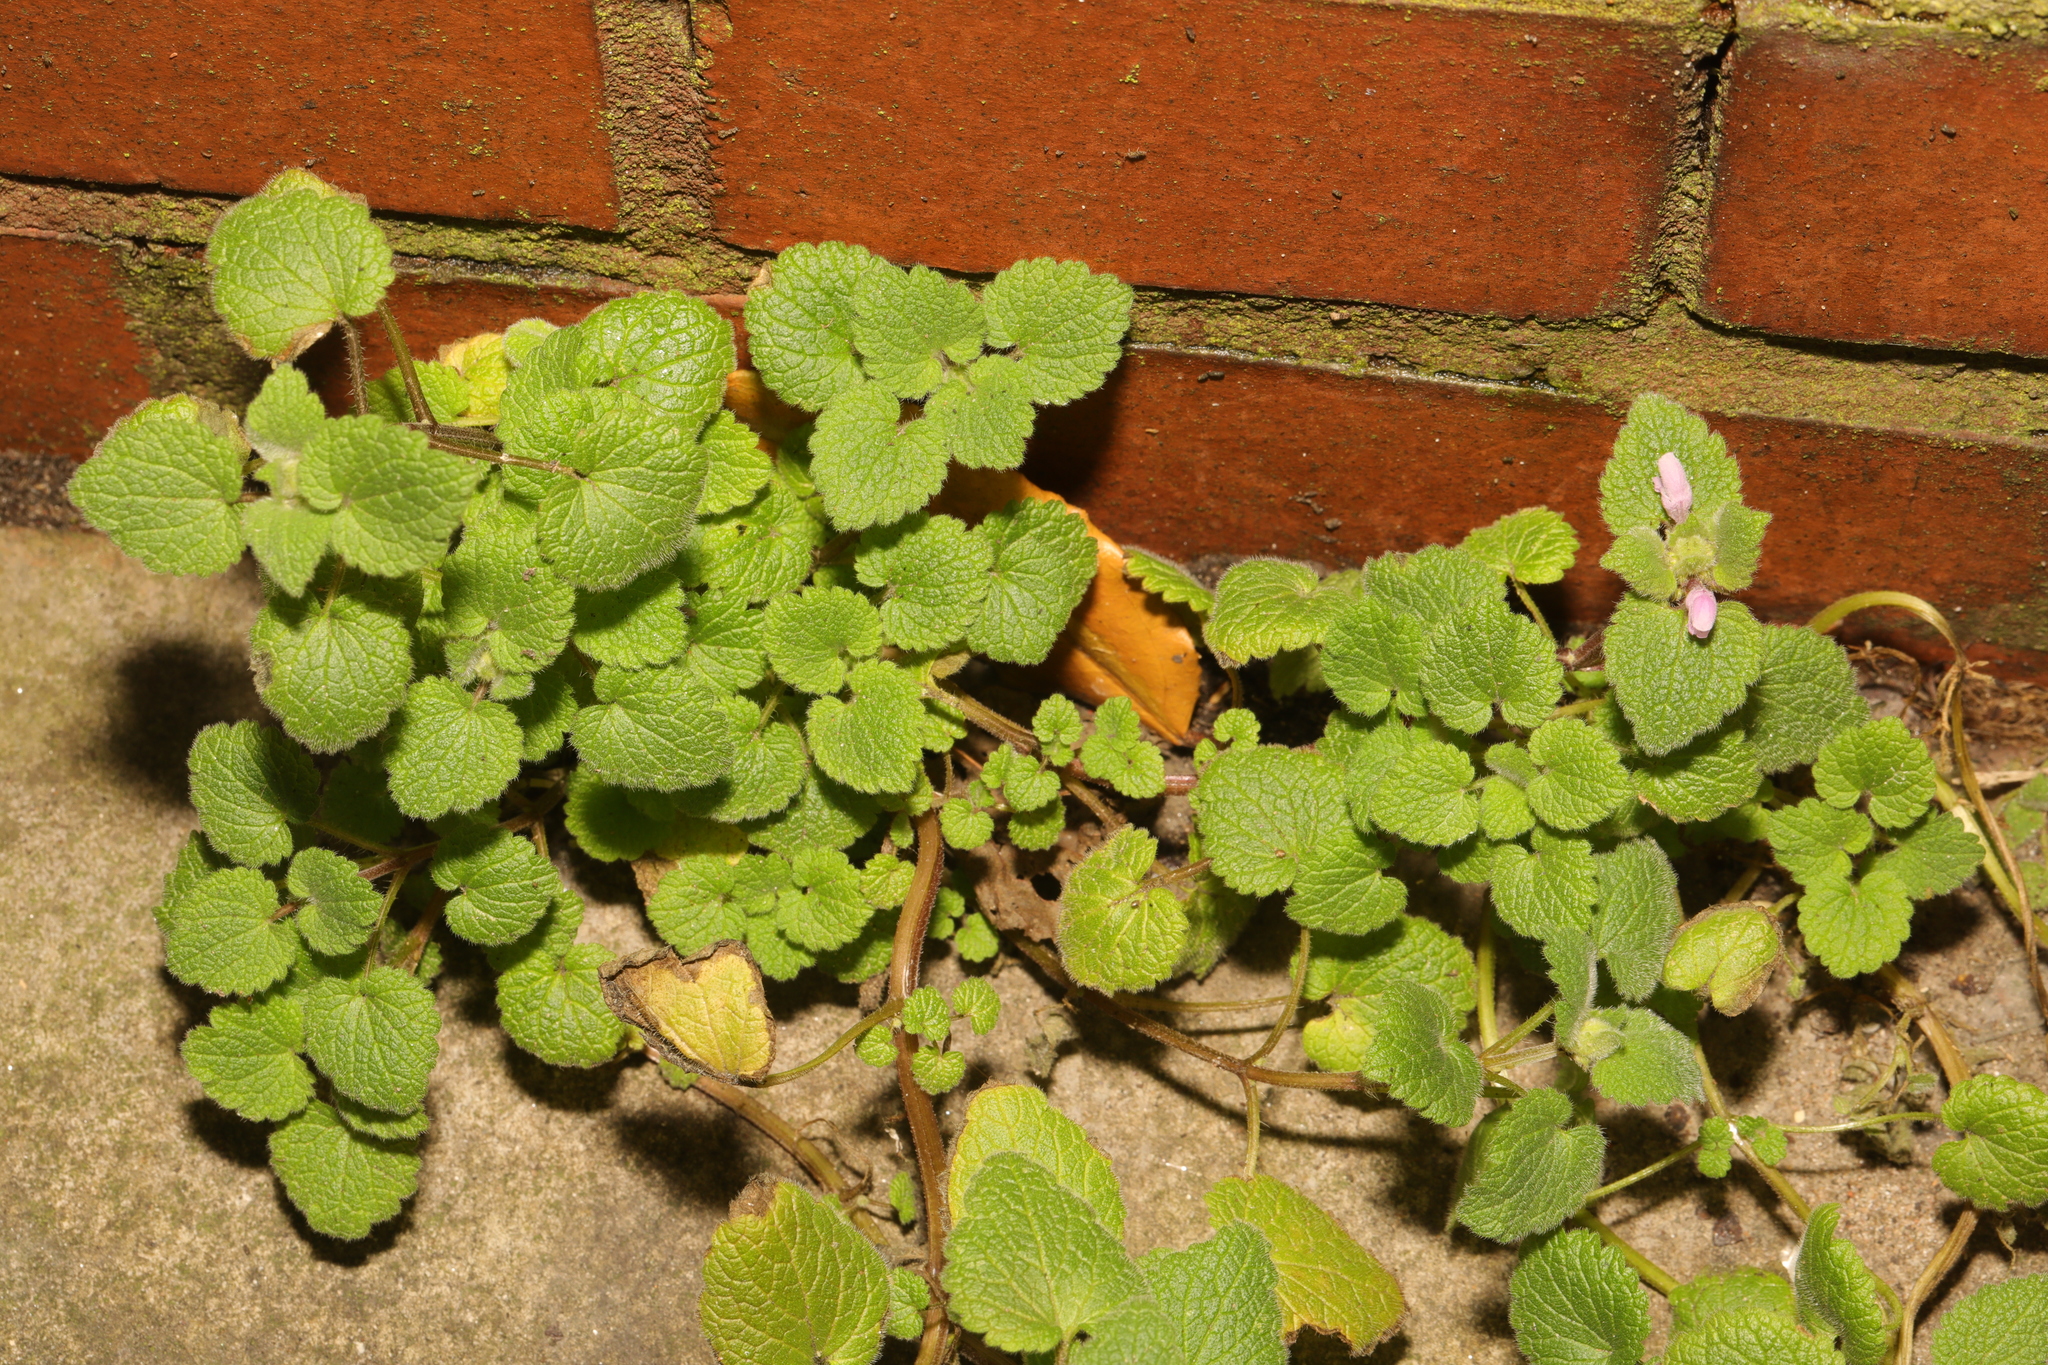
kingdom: Plantae
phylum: Tracheophyta
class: Magnoliopsida
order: Lamiales
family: Lamiaceae
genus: Lamium
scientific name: Lamium purpureum
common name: Red dead-nettle
